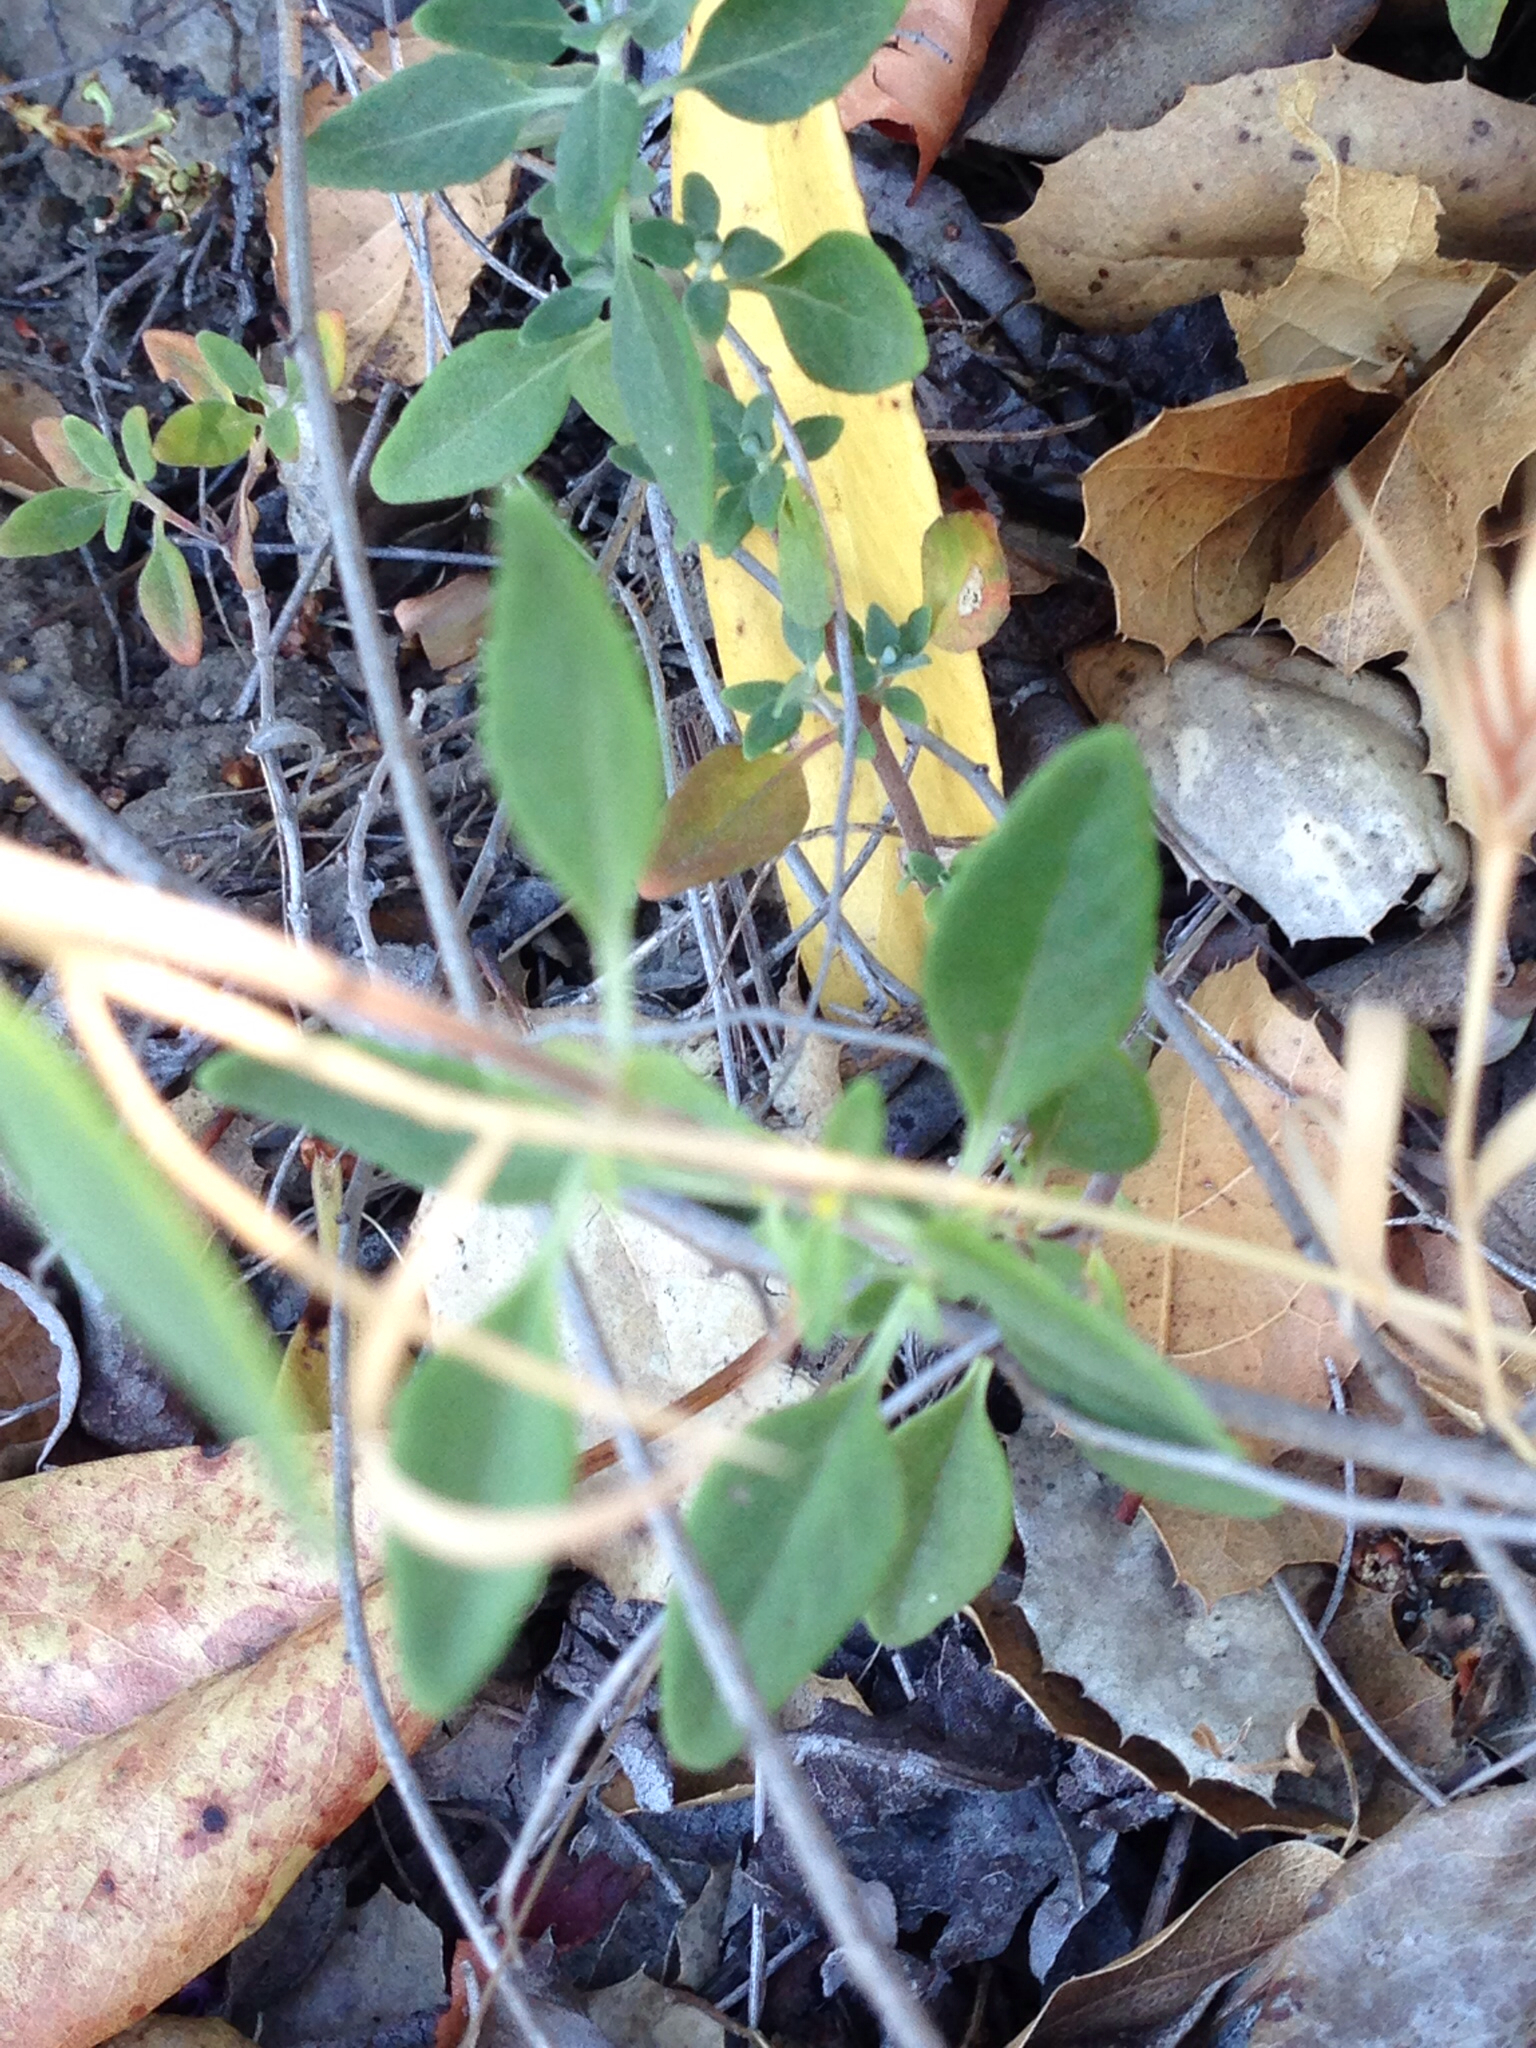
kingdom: Plantae
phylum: Tracheophyta
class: Magnoliopsida
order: Lamiales
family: Lamiaceae
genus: Monardella
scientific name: Monardella odoratissima
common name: Pacific monardella
